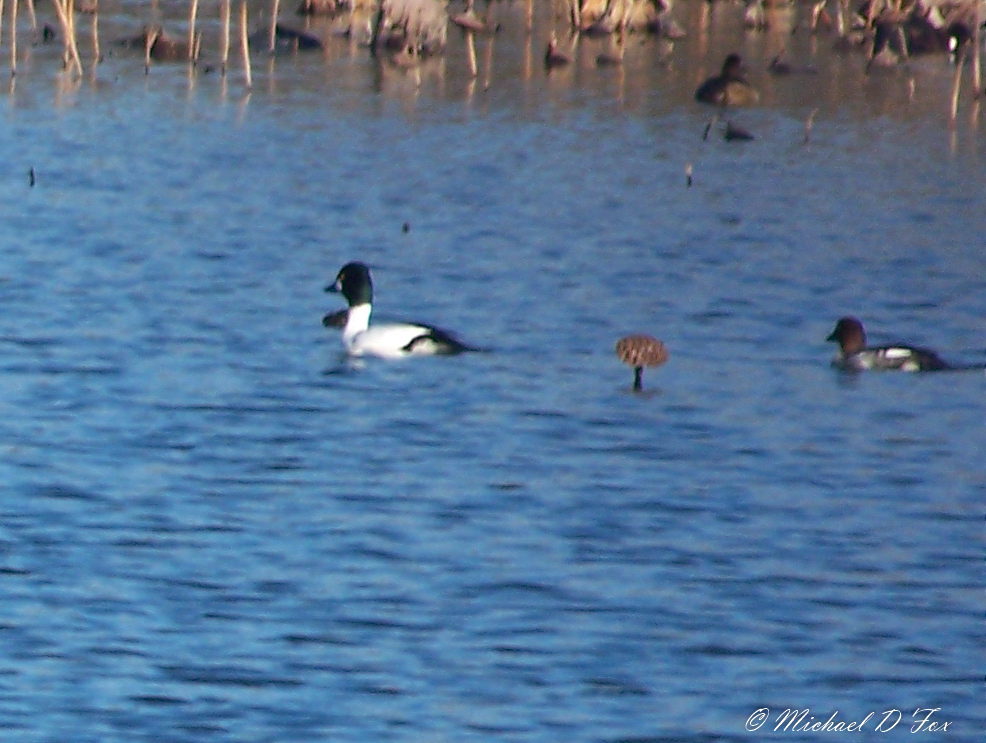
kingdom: Animalia
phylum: Chordata
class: Aves
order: Anseriformes
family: Anatidae
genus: Bucephala
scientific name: Bucephala clangula
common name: Common goldeneye
